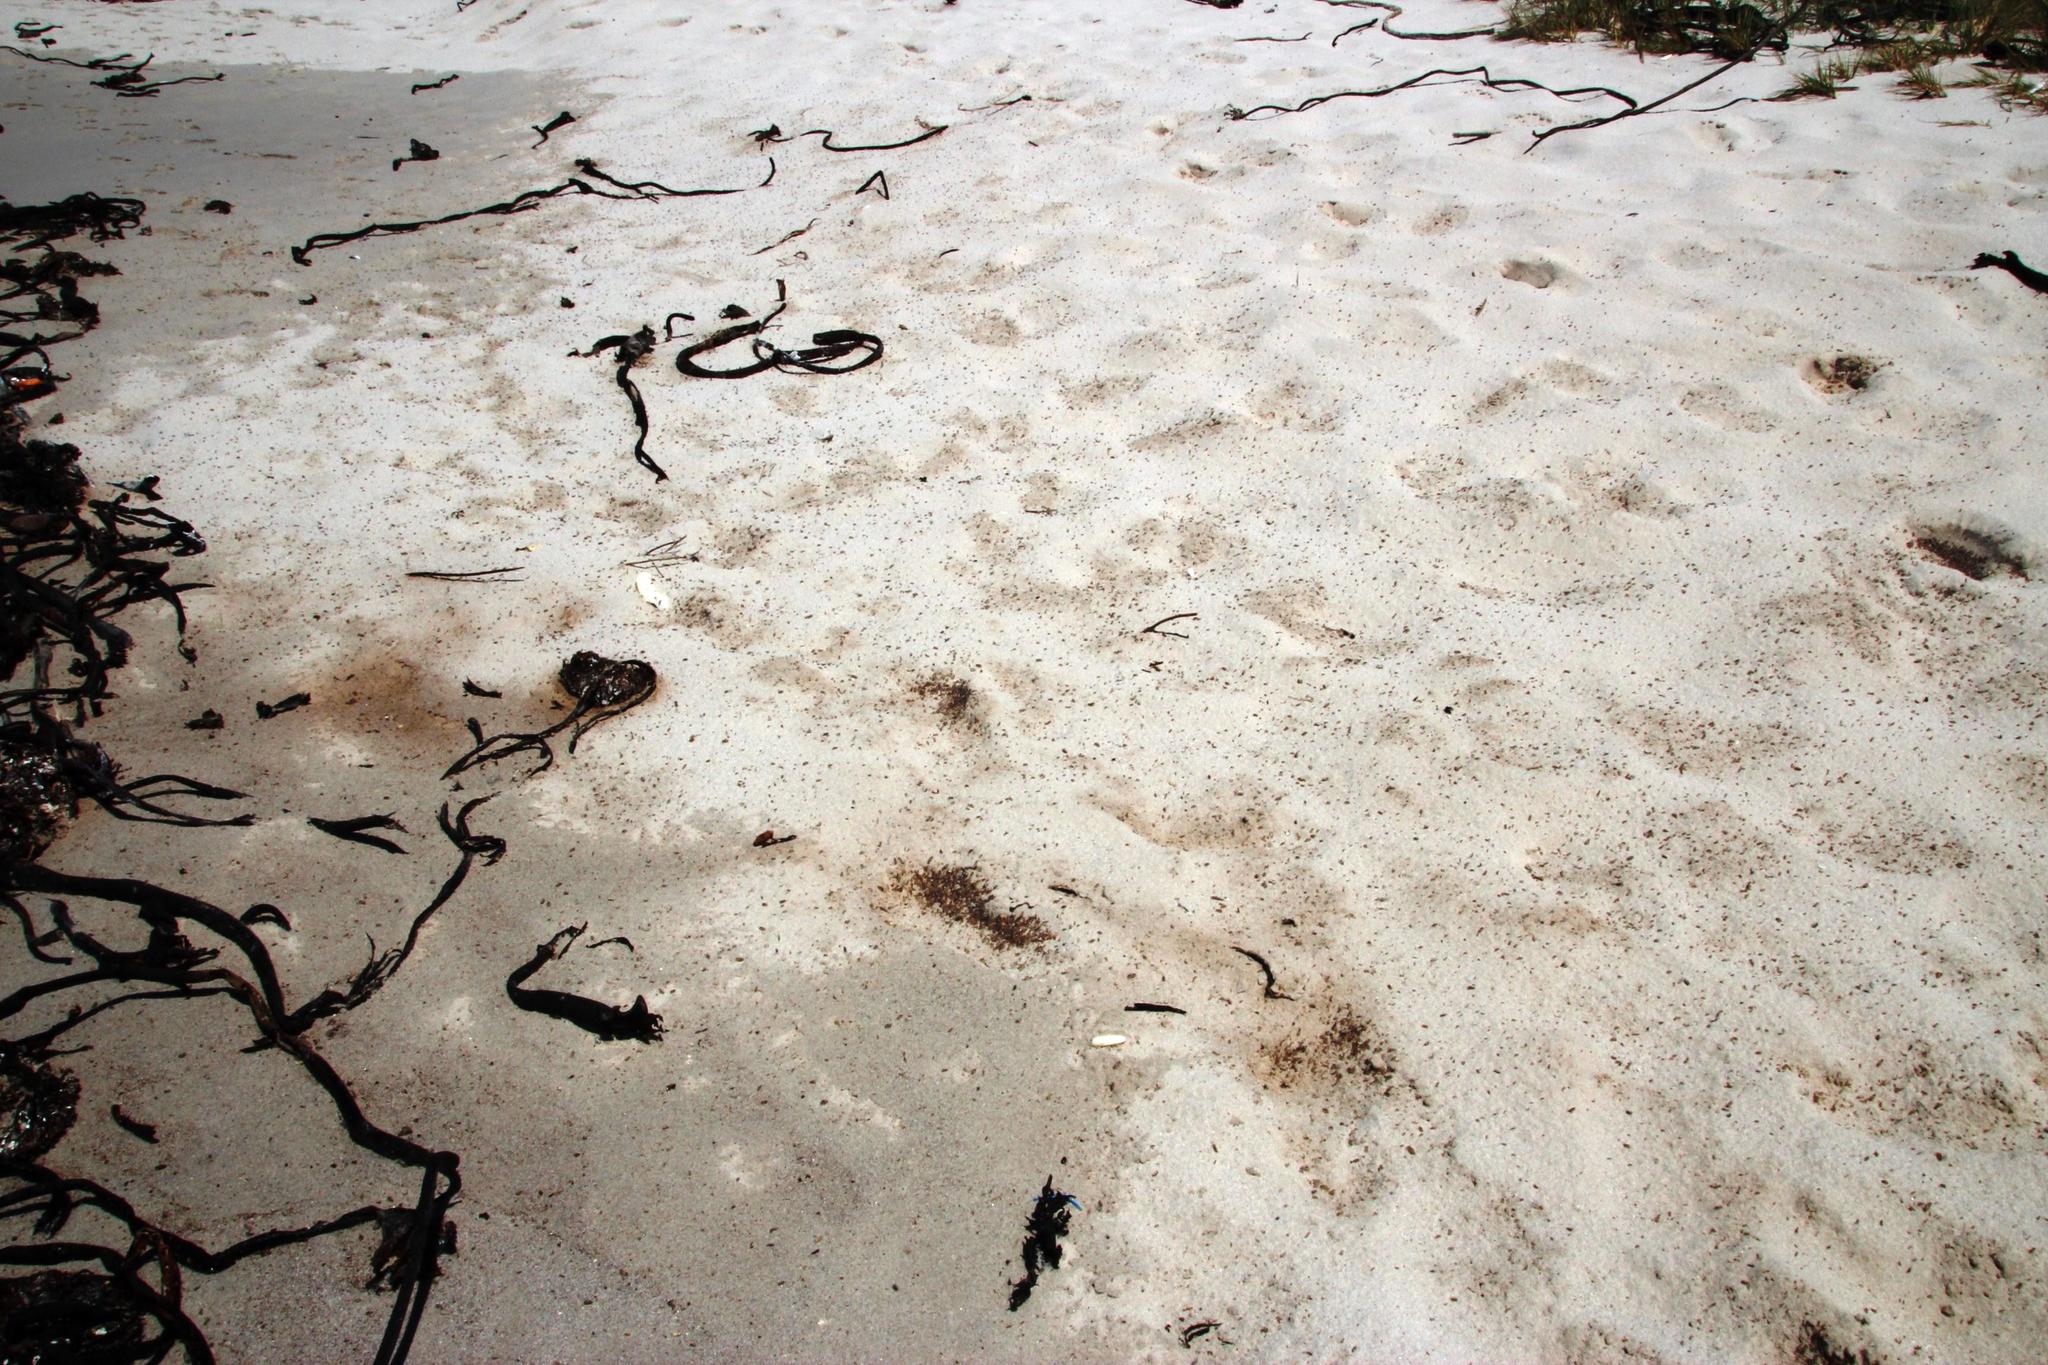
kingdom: Animalia
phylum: Arthropoda
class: Malacostraca
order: Amphipoda
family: Talitridae
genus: Capeorchestia
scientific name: Capeorchestia capensis
